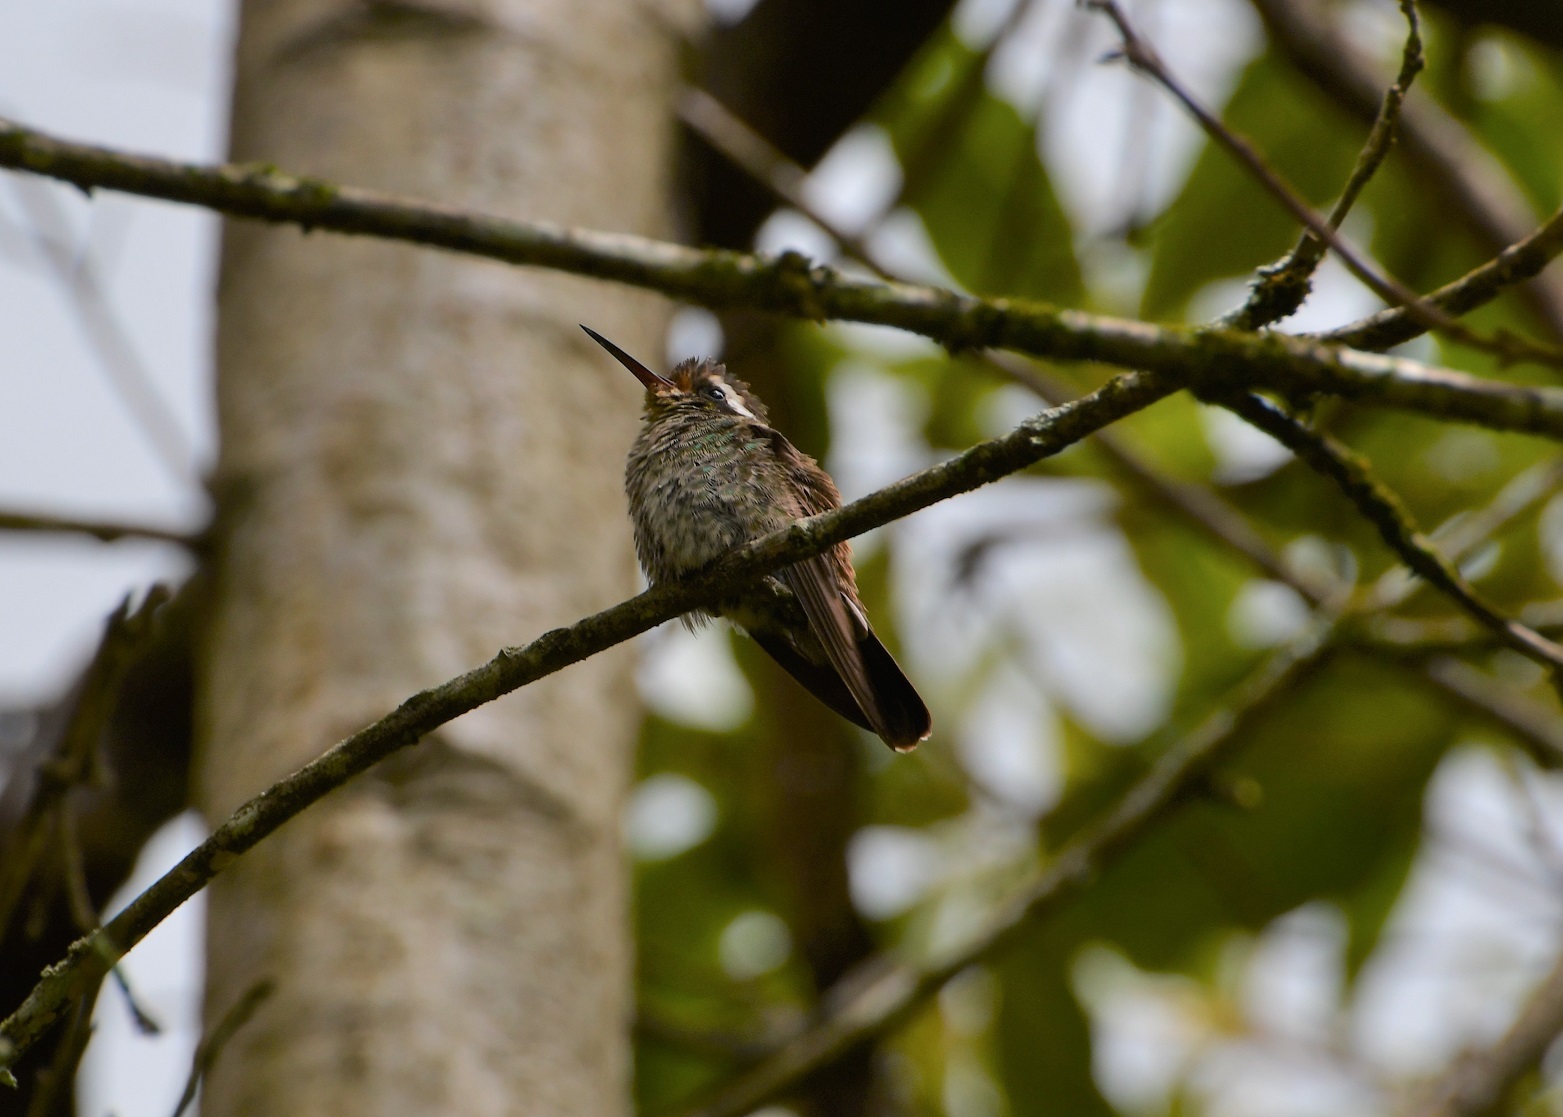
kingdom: Animalia
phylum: Chordata
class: Aves
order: Apodiformes
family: Trochilidae
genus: Basilinna
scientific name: Basilinna leucotis
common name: White-eared hummingbird
